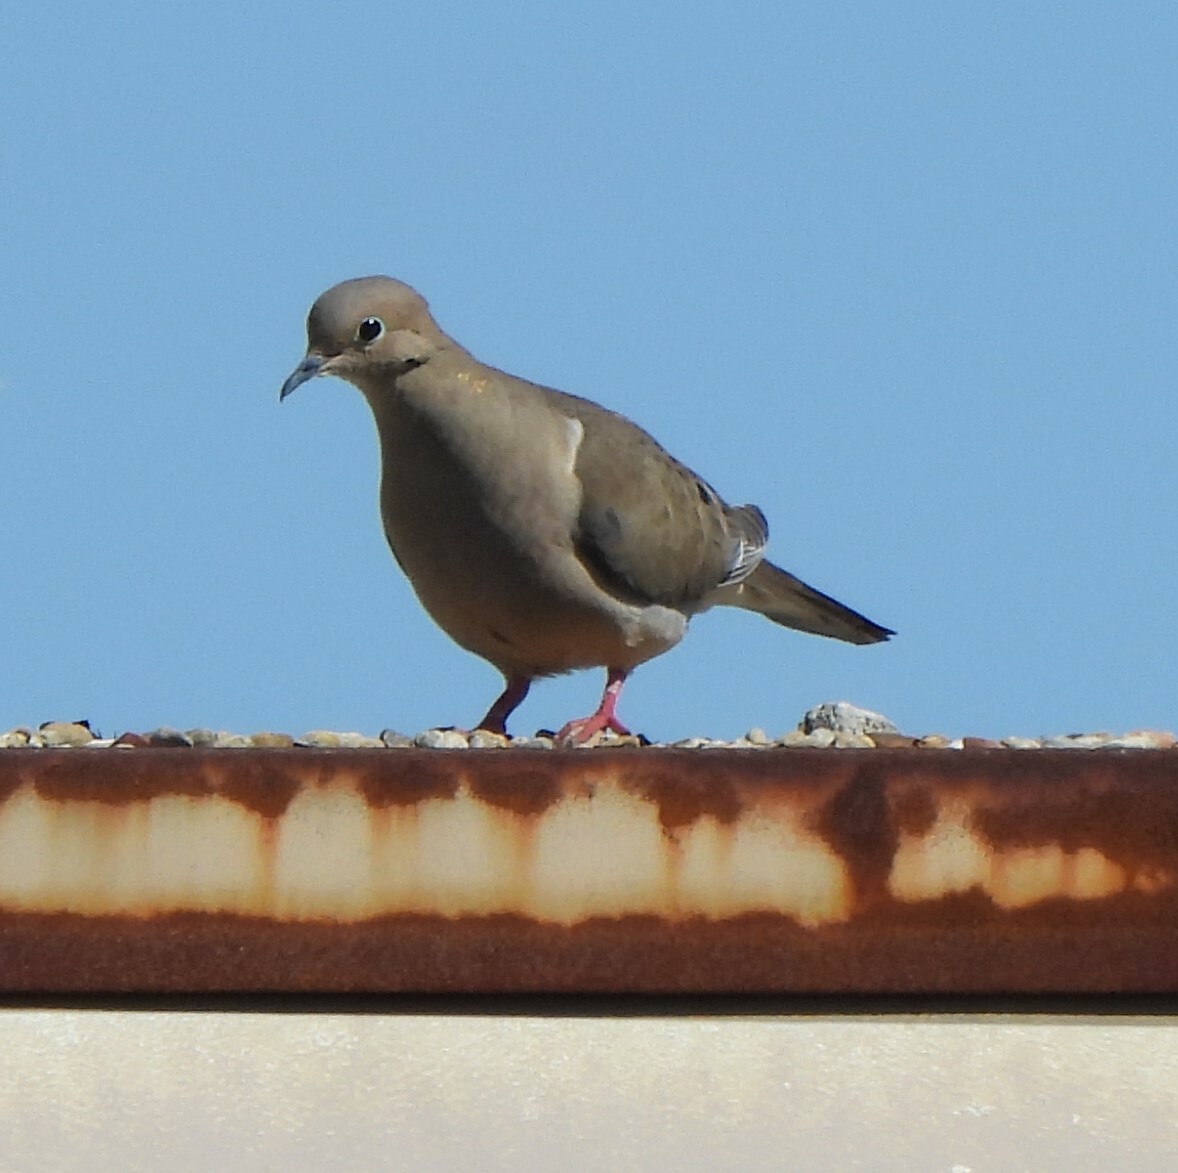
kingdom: Animalia
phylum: Chordata
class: Aves
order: Columbiformes
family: Columbidae
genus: Zenaida
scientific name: Zenaida macroura
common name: Mourning dove
